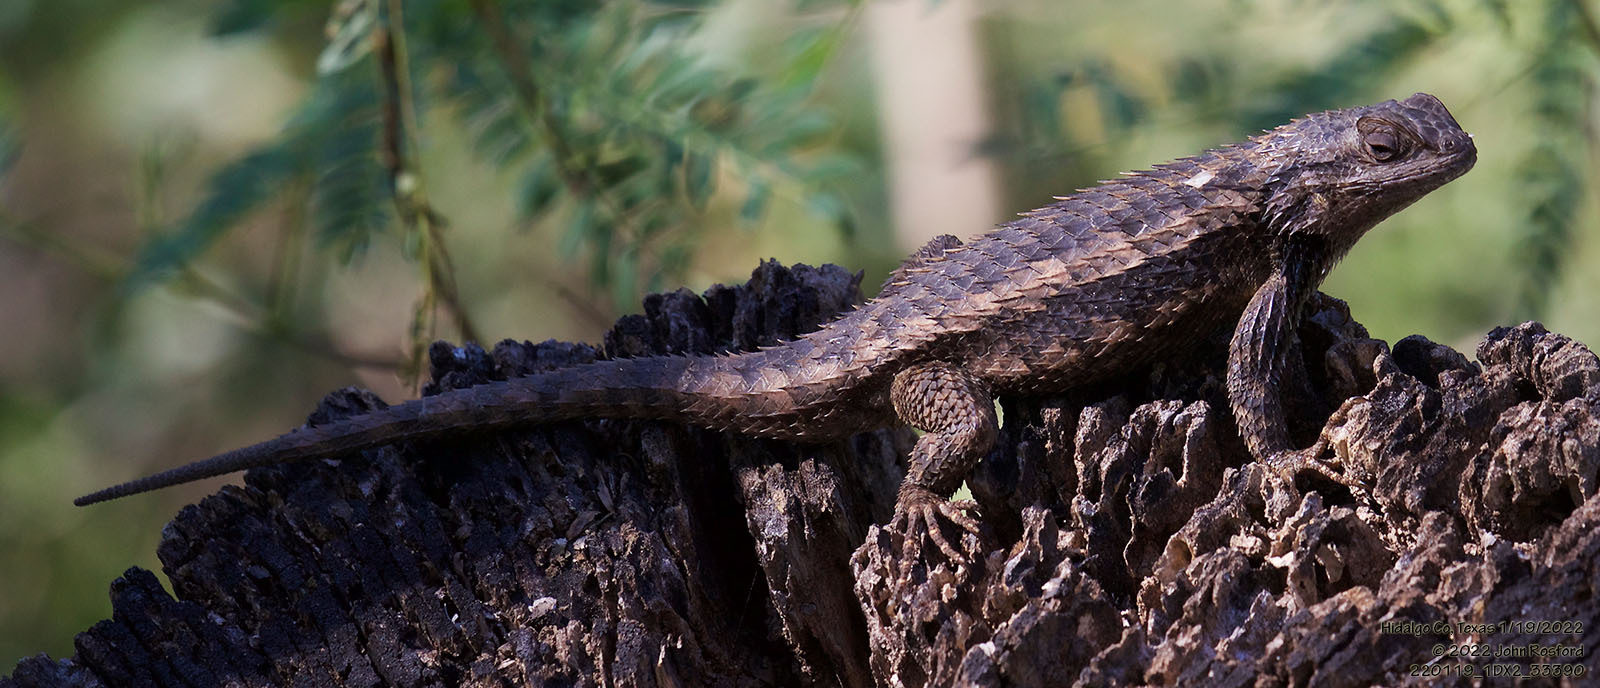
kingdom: Animalia
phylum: Chordata
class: Squamata
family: Phrynosomatidae
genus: Sceloporus
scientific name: Sceloporus olivaceus
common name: Texas spiny lizard
